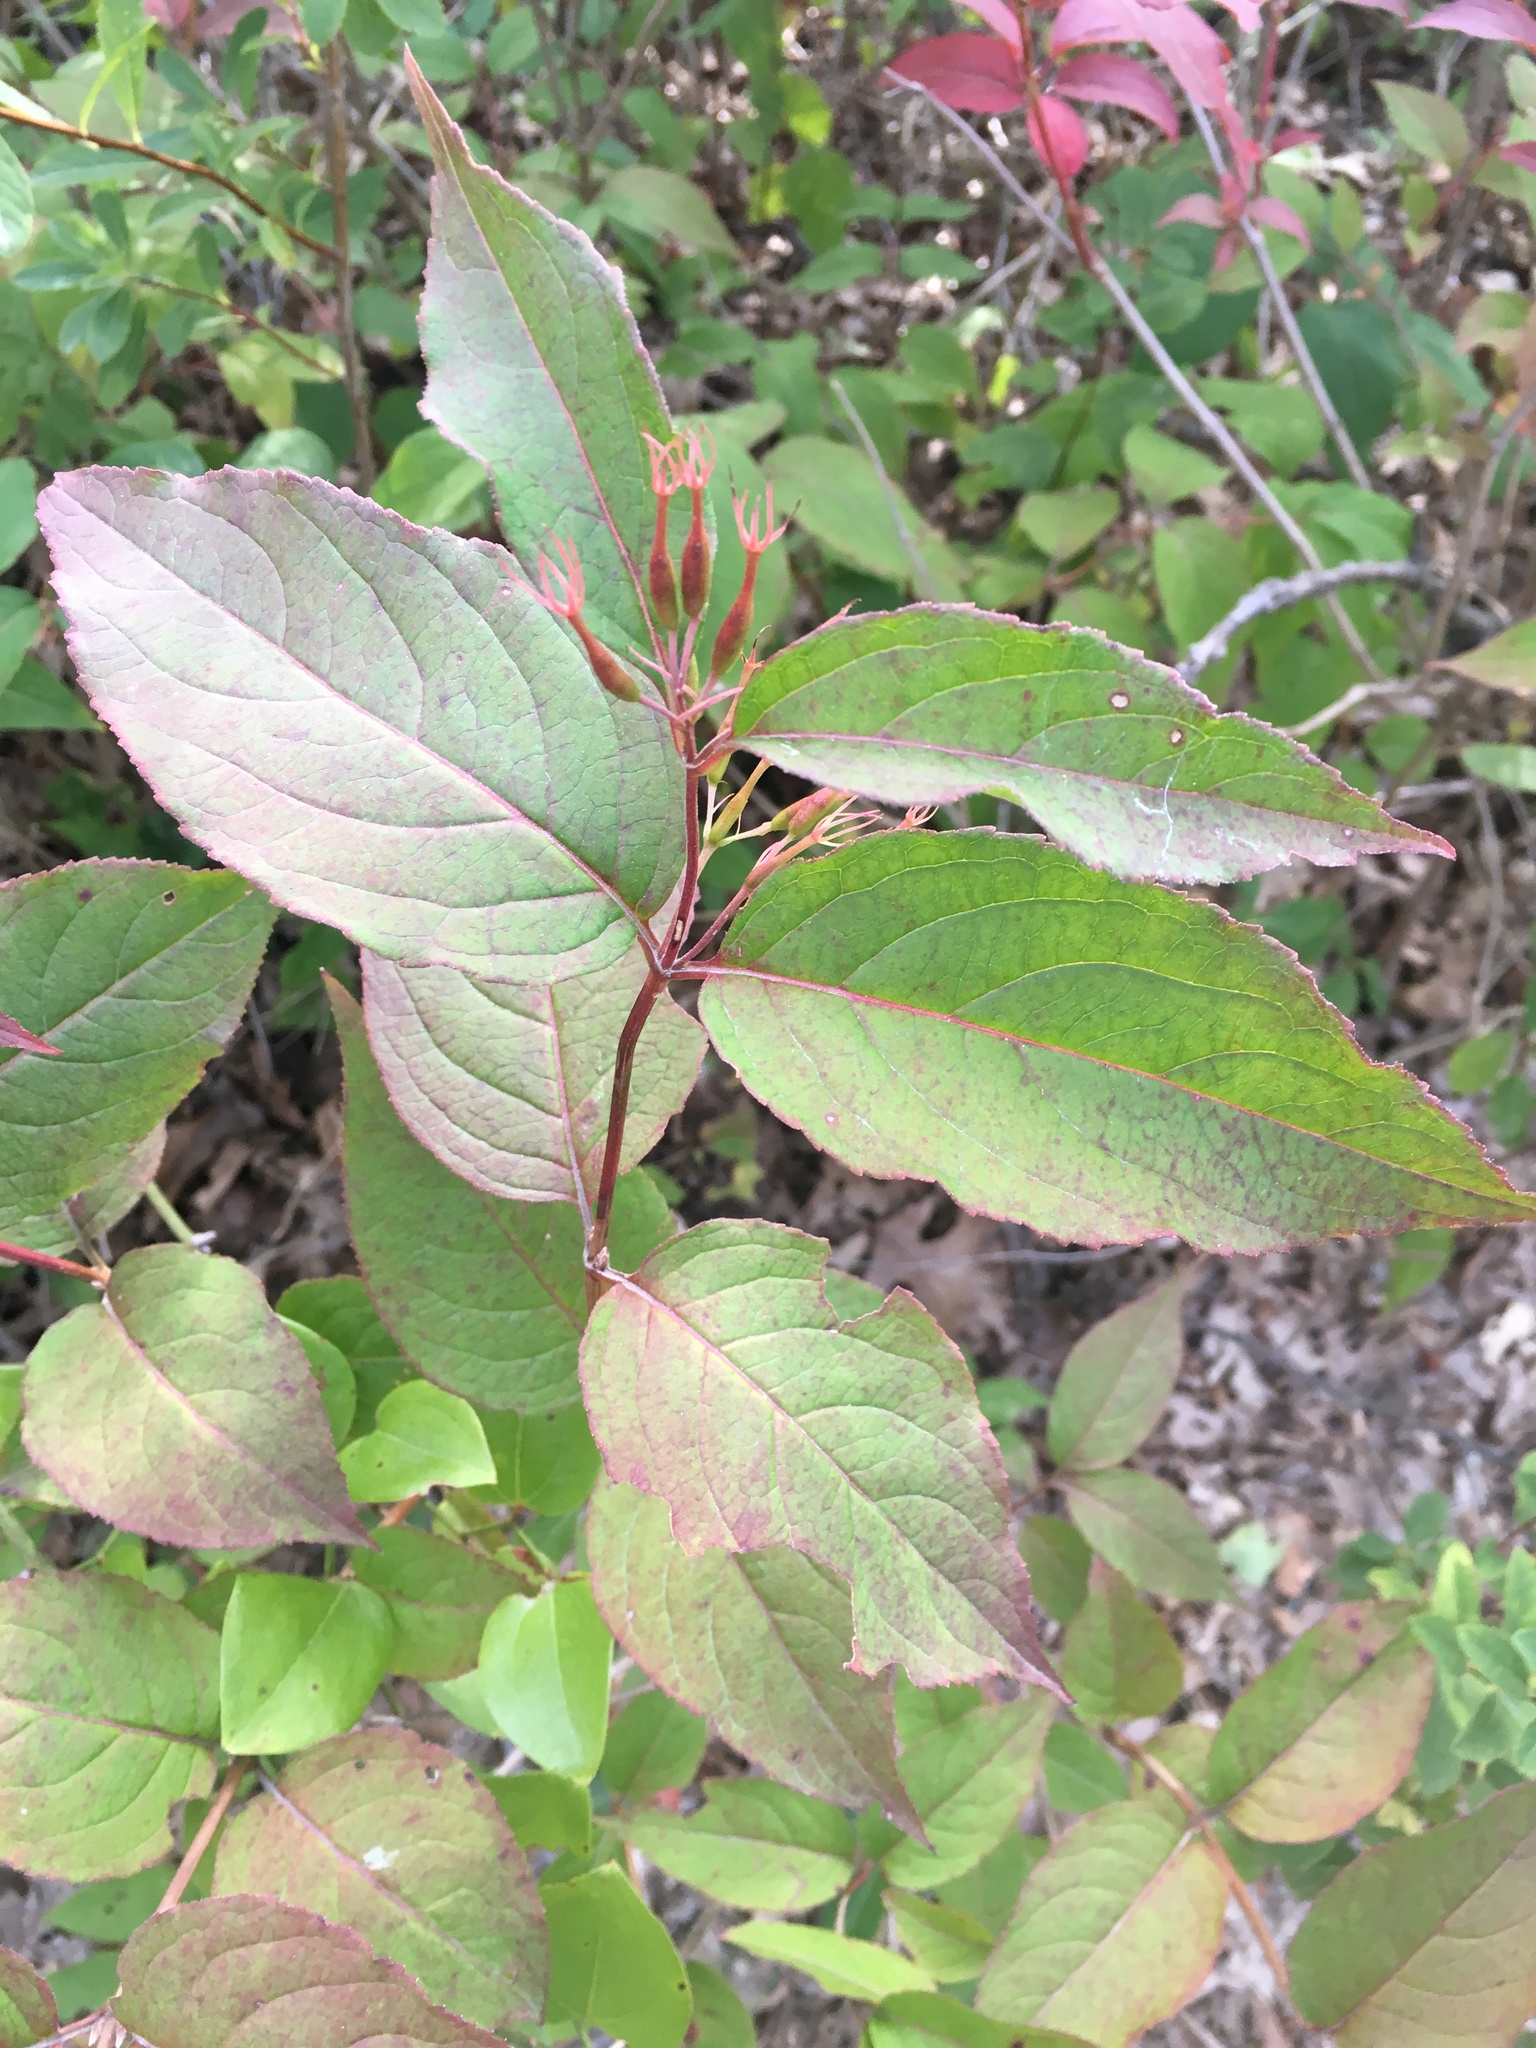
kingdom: Plantae
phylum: Tracheophyta
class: Magnoliopsida
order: Dipsacales
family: Caprifoliaceae
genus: Diervilla
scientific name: Diervilla lonicera
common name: Bush-honeysuckle
